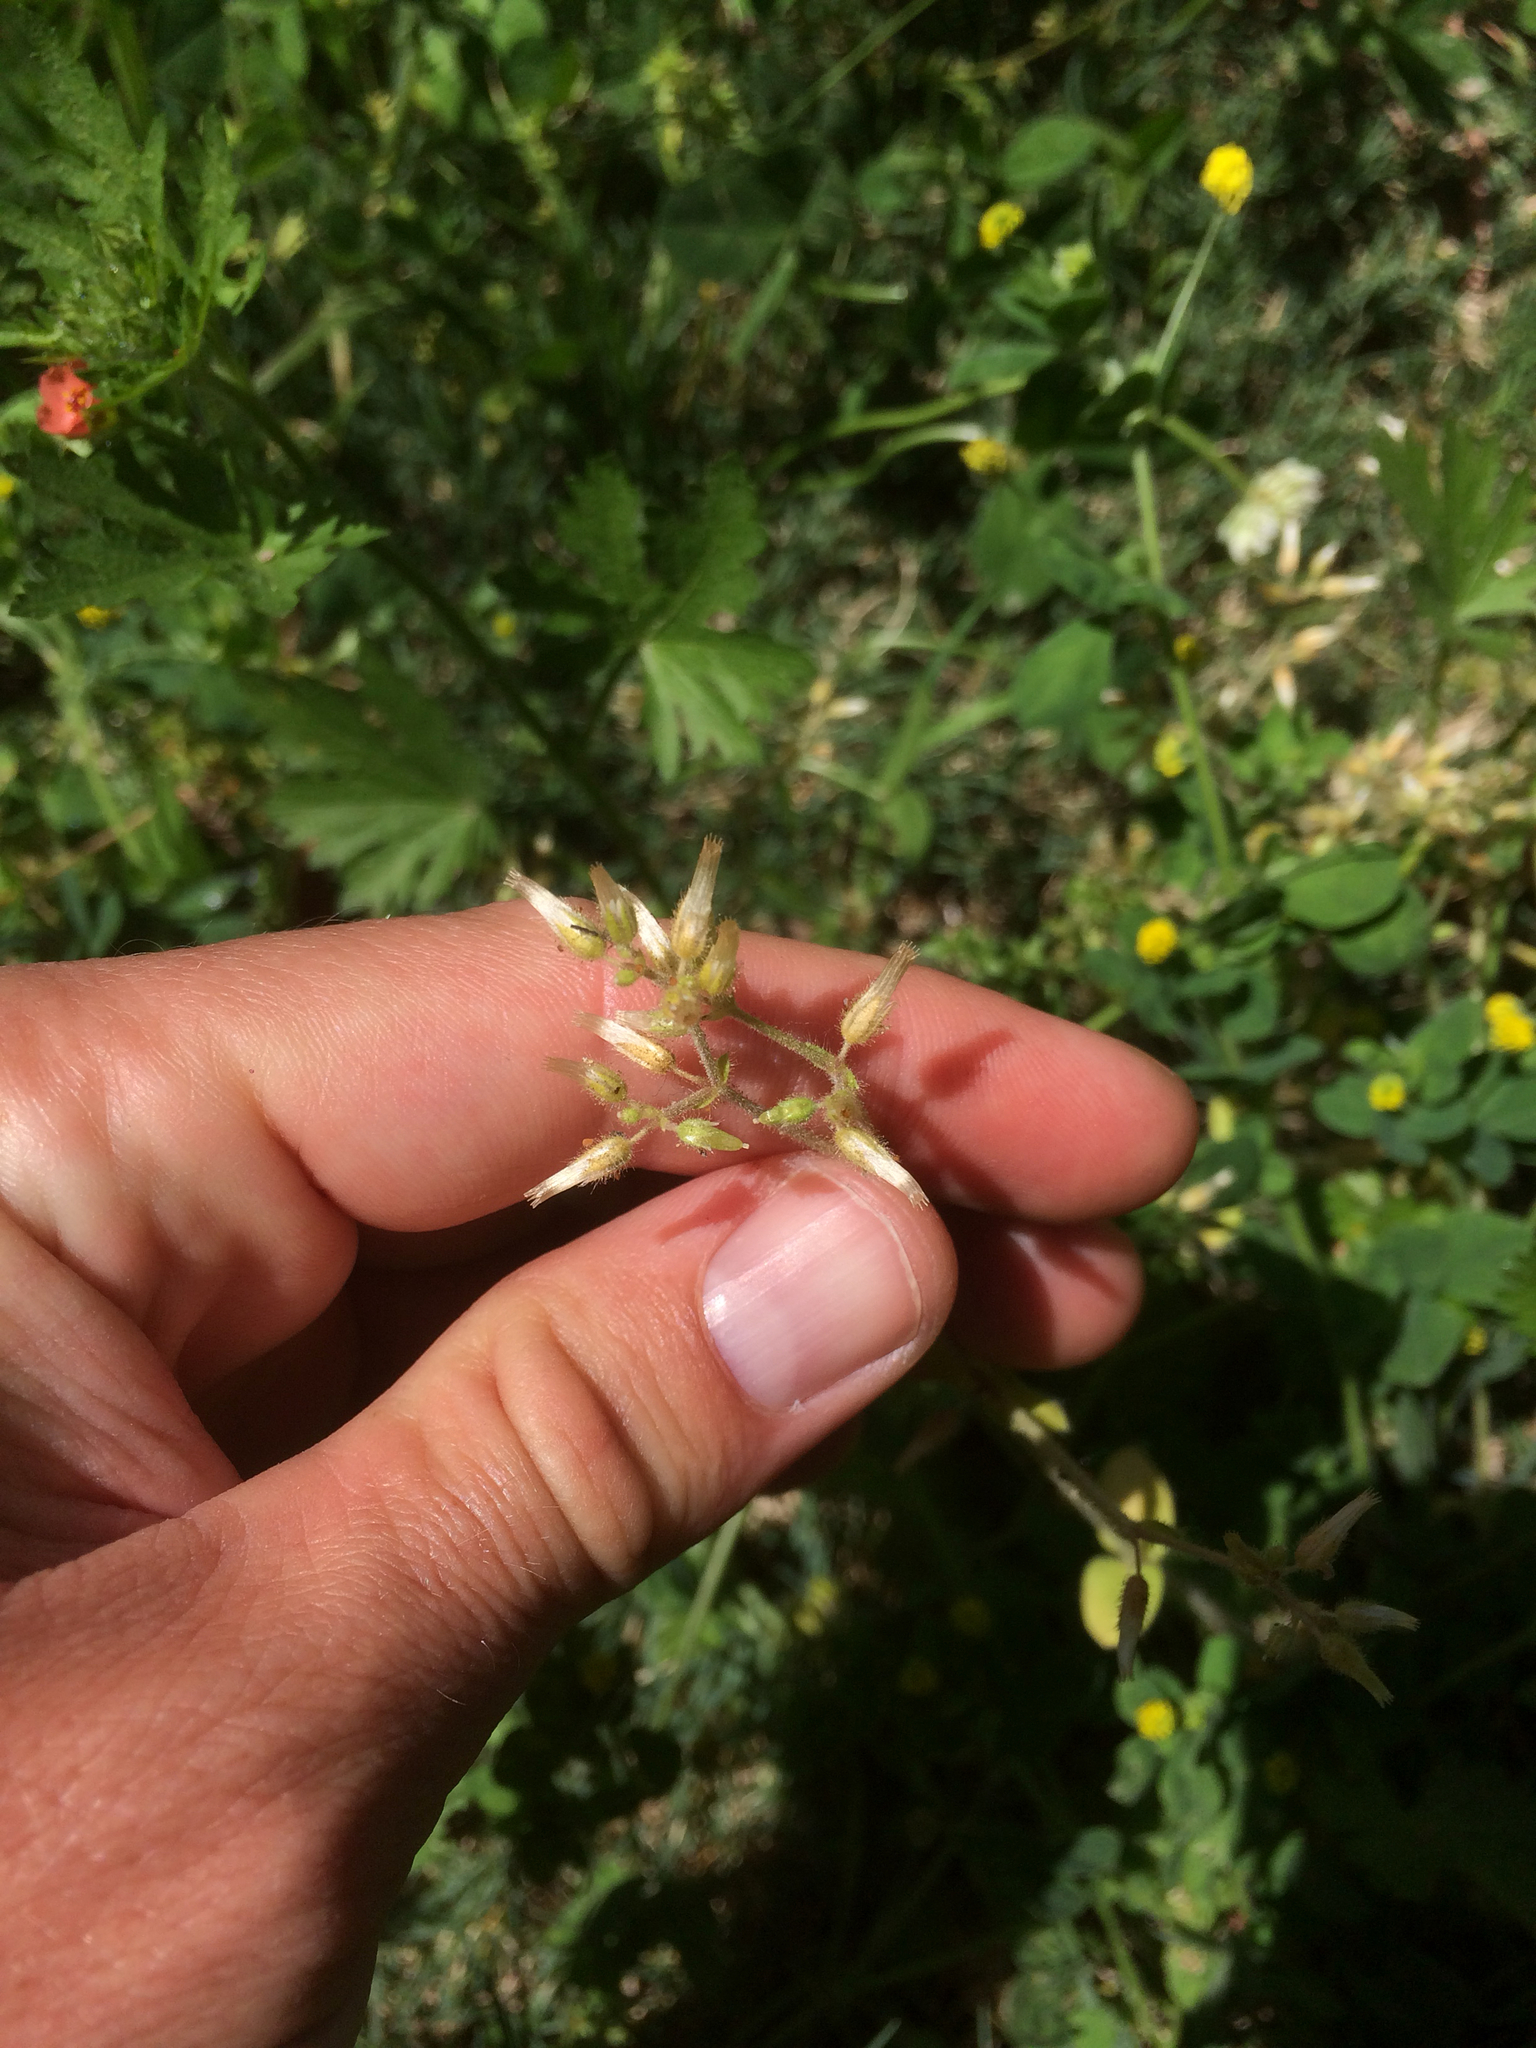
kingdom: Plantae
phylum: Tracheophyta
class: Magnoliopsida
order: Caryophyllales
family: Caryophyllaceae
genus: Cerastium
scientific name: Cerastium glomeratum
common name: Sticky chickweed
